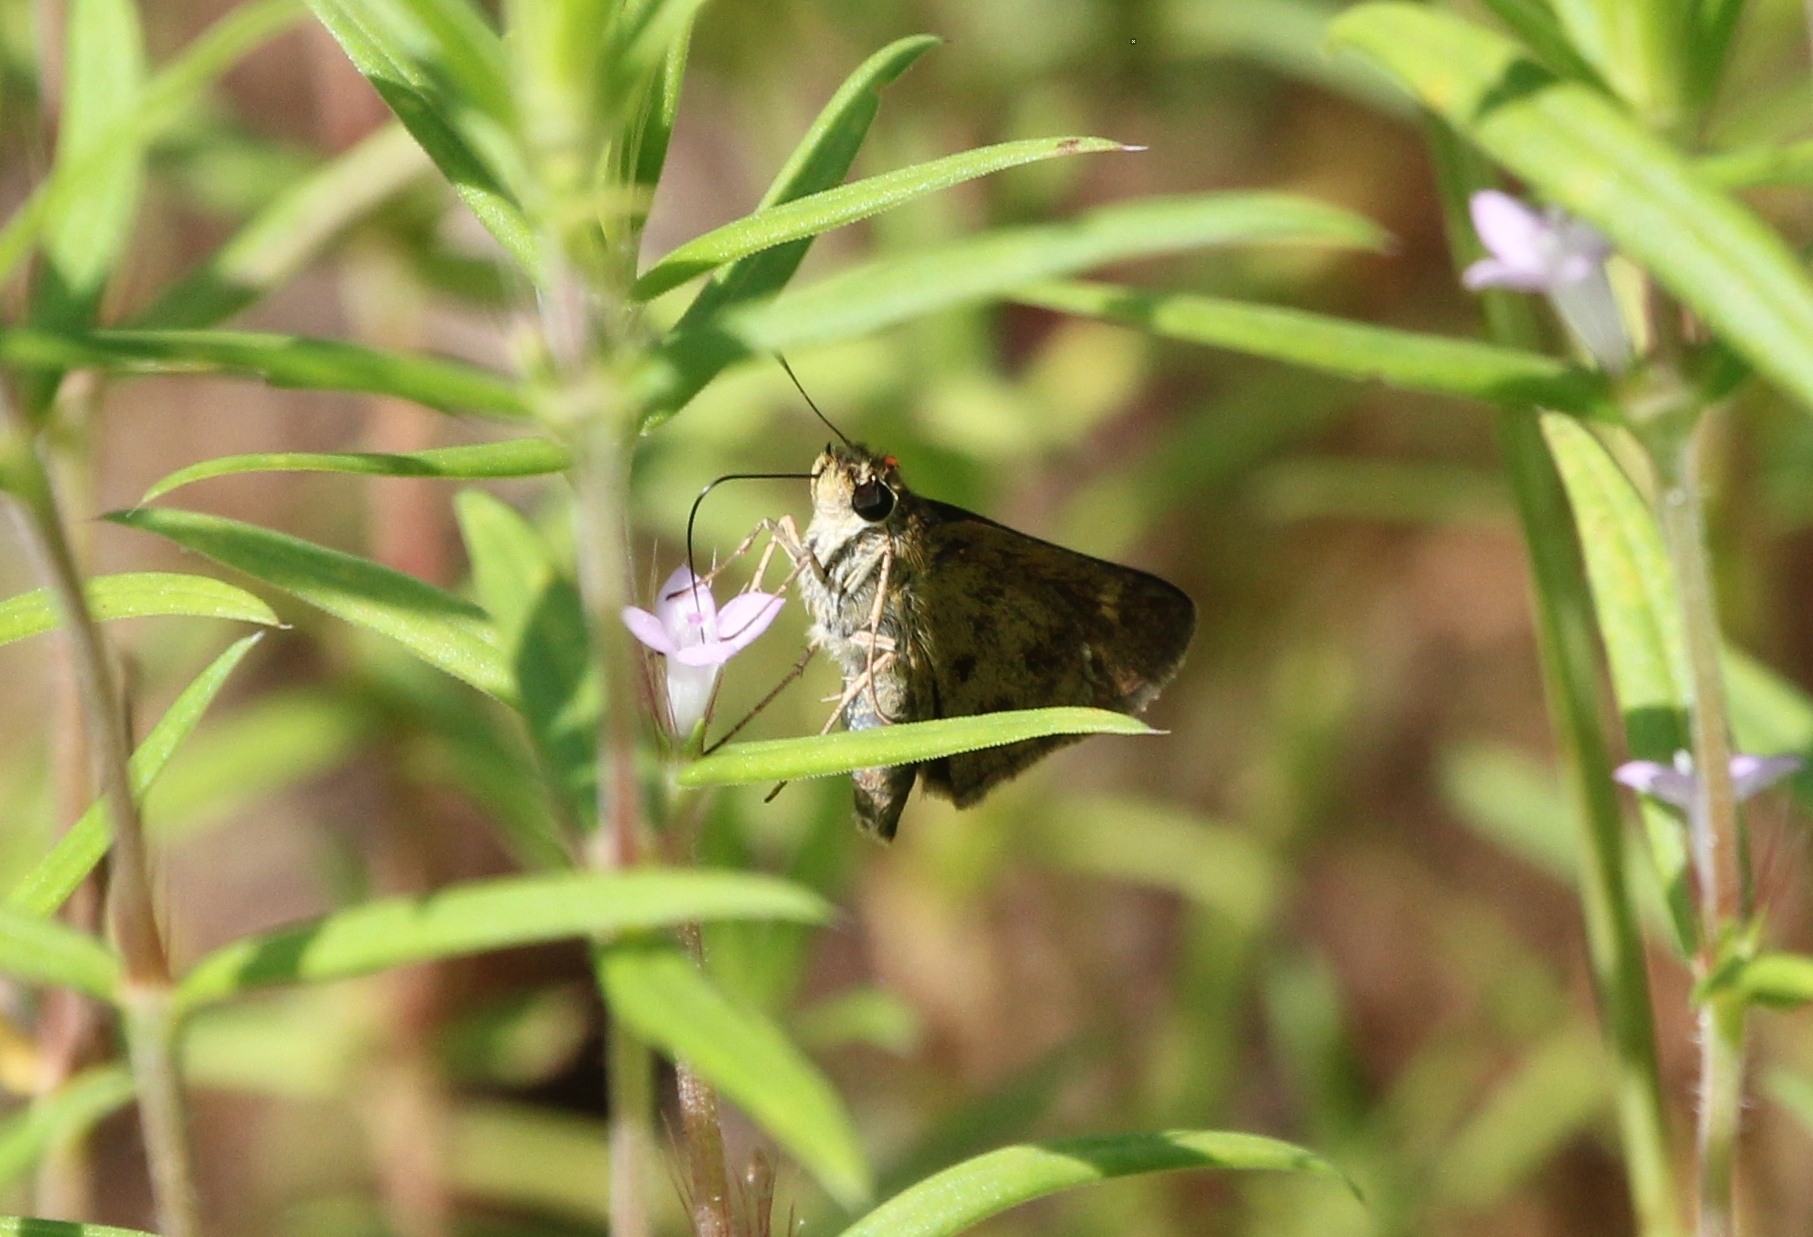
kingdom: Animalia
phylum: Arthropoda
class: Insecta
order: Lepidoptera
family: Hesperiidae
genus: Polites
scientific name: Polites vibex
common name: Whirlabout
